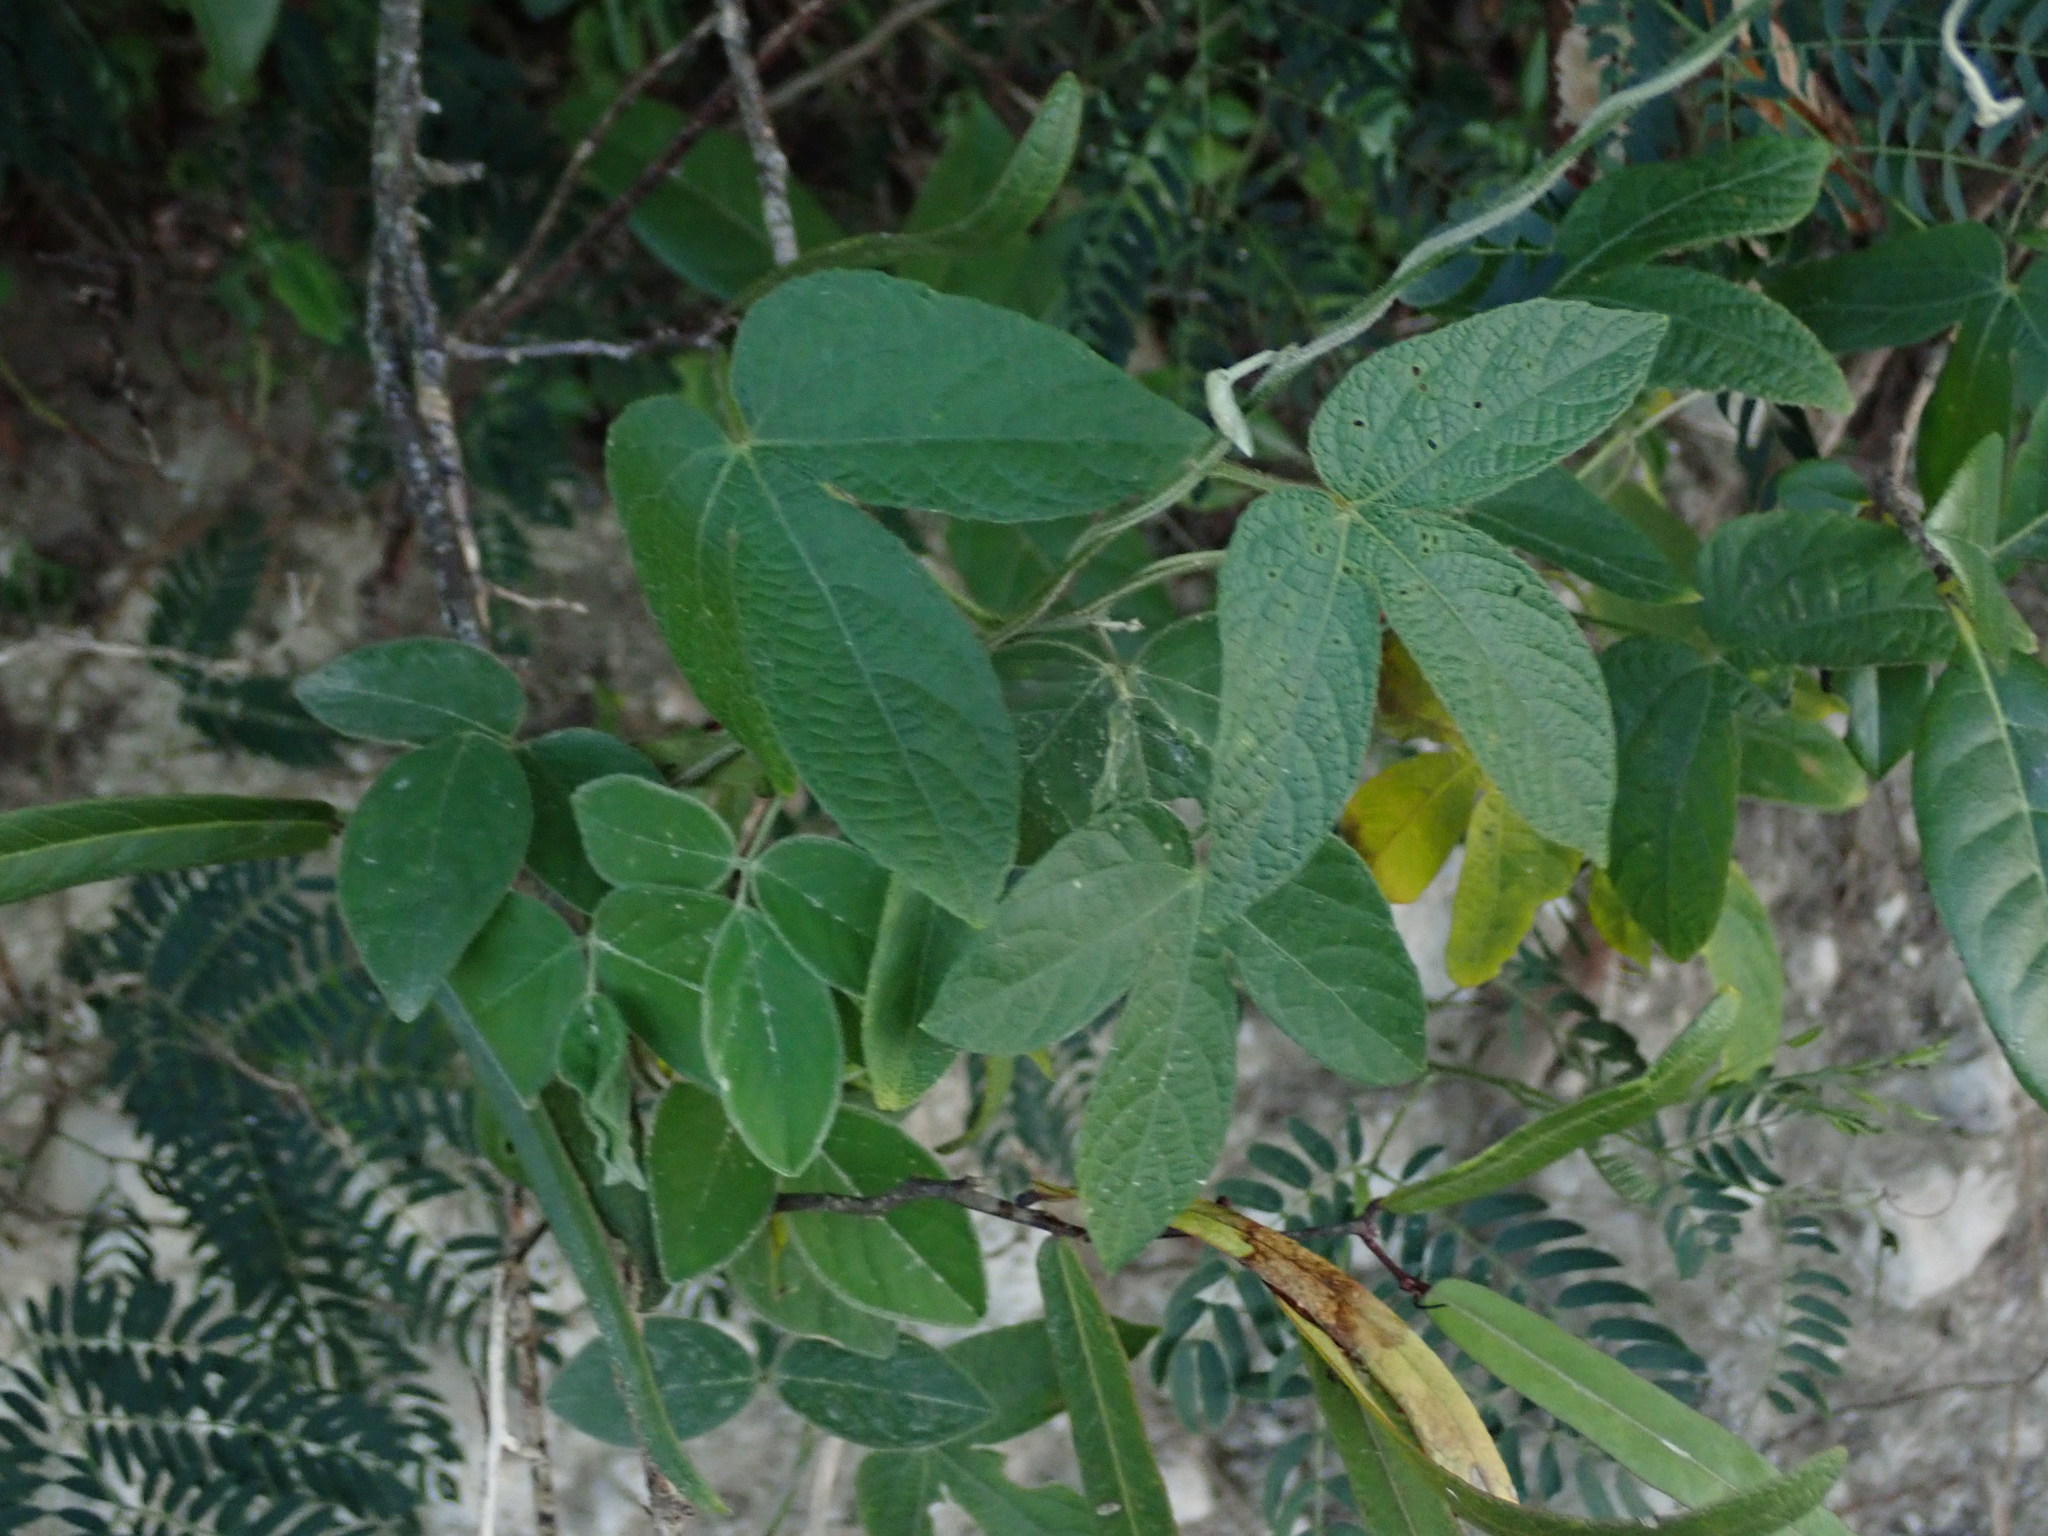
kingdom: Plantae
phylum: Tracheophyta
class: Magnoliopsida
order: Malpighiales
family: Euphorbiaceae
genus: Dalechampia
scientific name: Dalechampia scandens
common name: Spurgecreeper
